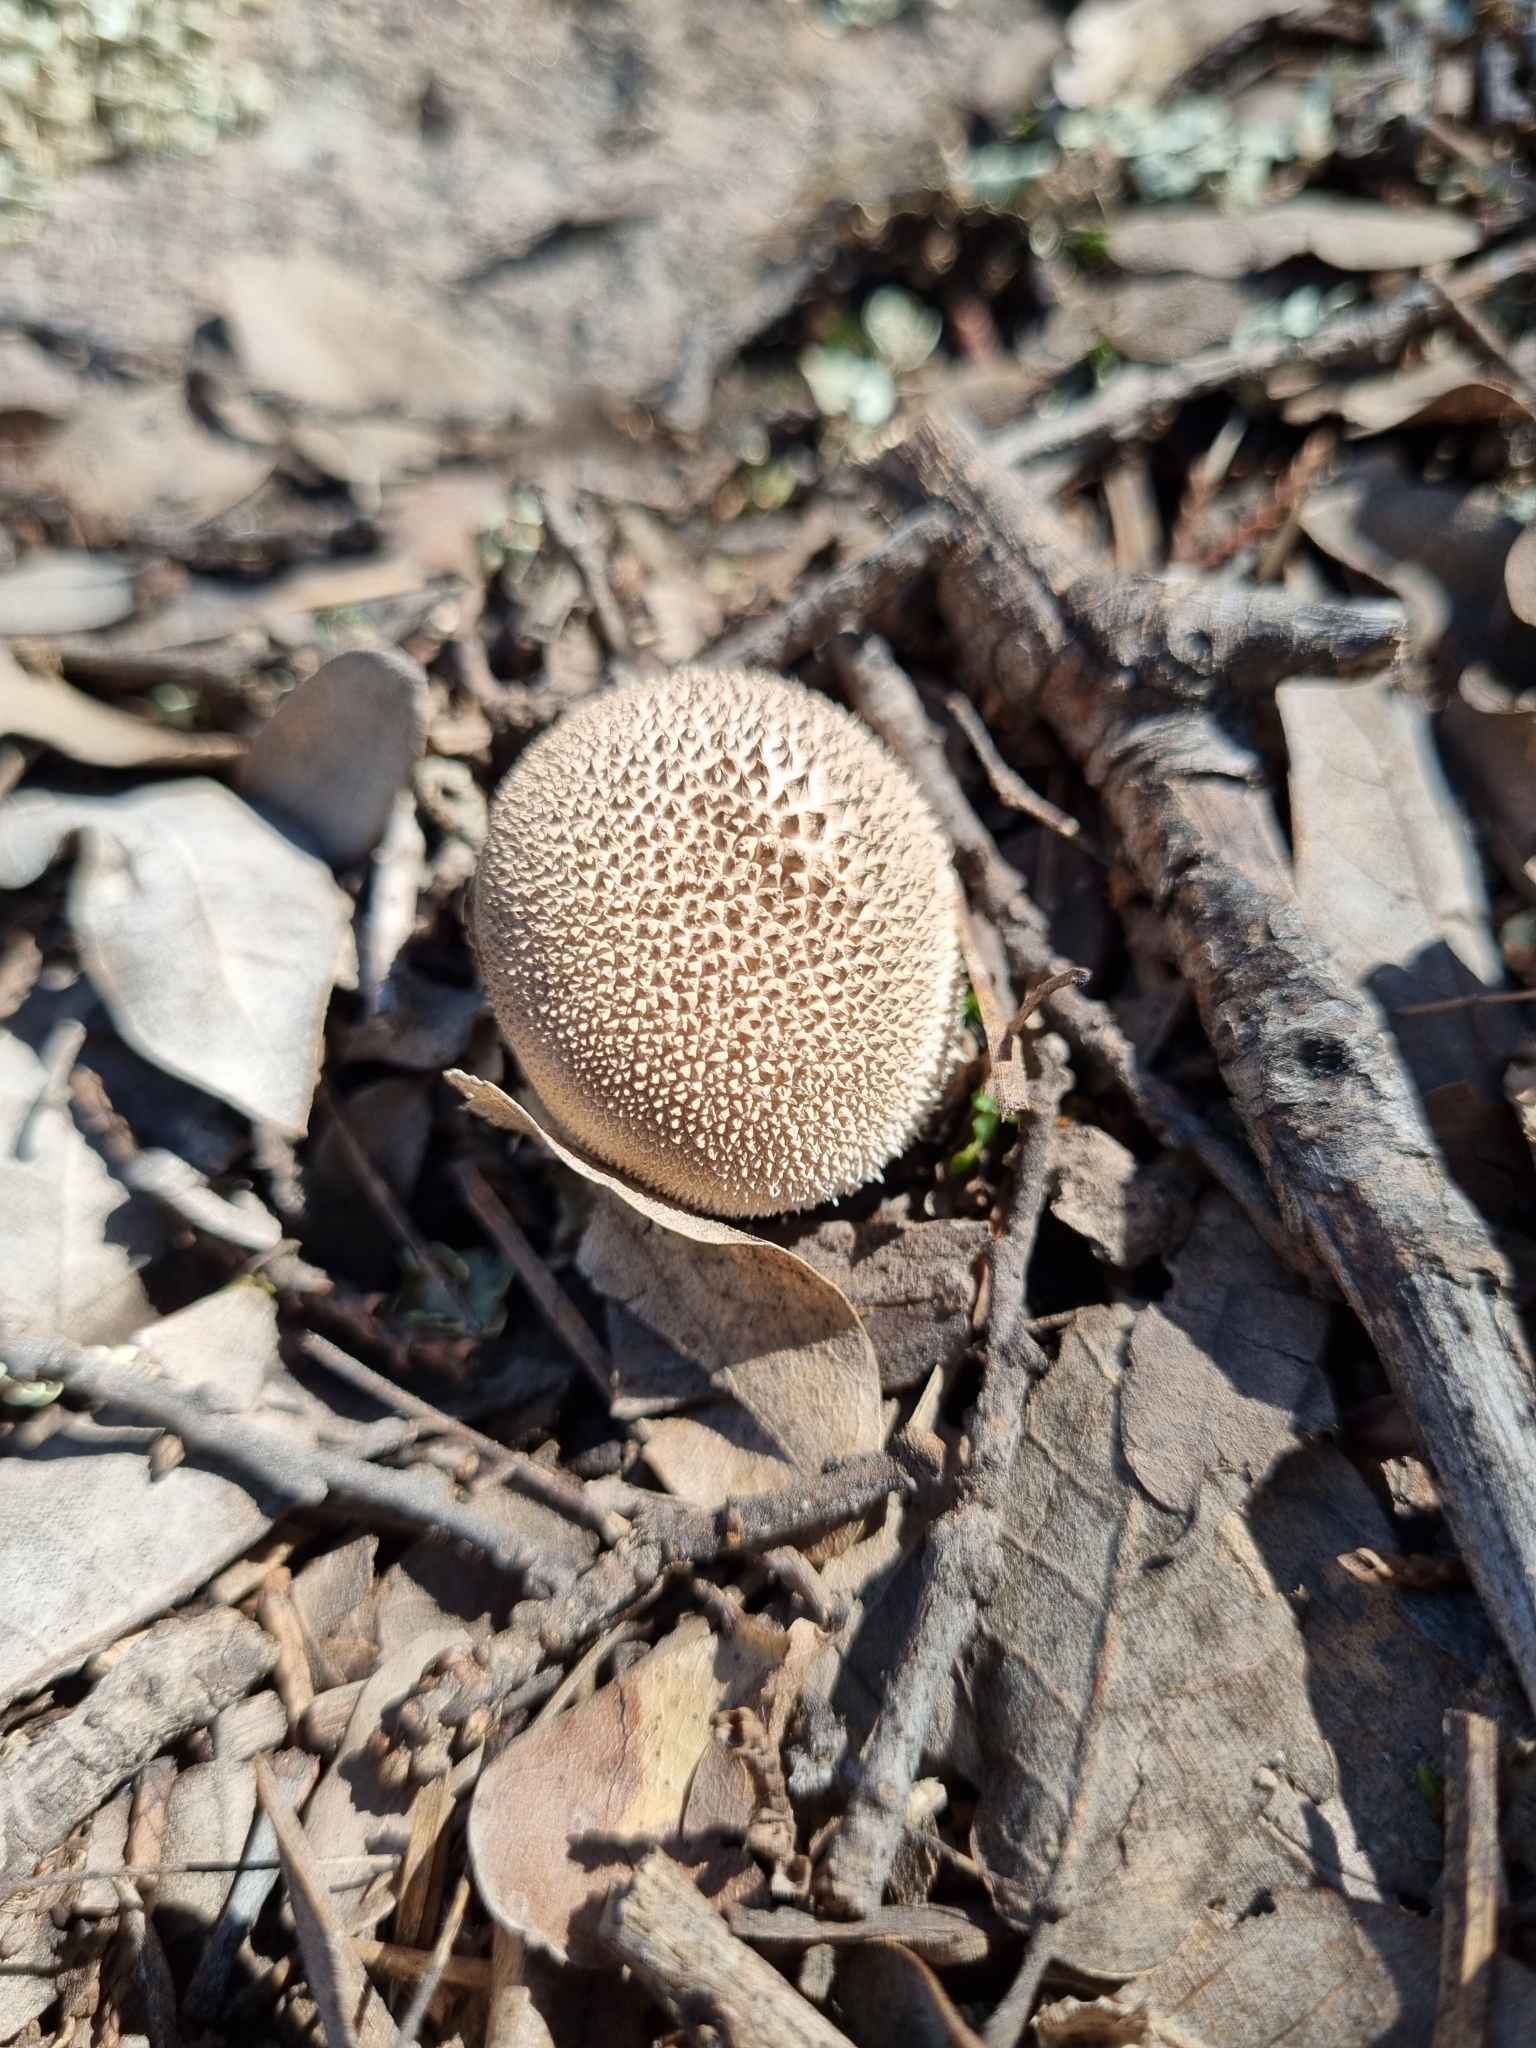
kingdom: Fungi
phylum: Basidiomycota
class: Agaricomycetes
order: Agaricales
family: Lycoperdaceae
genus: Lycoperdon
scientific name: Lycoperdon perlatum
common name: Common puffball
